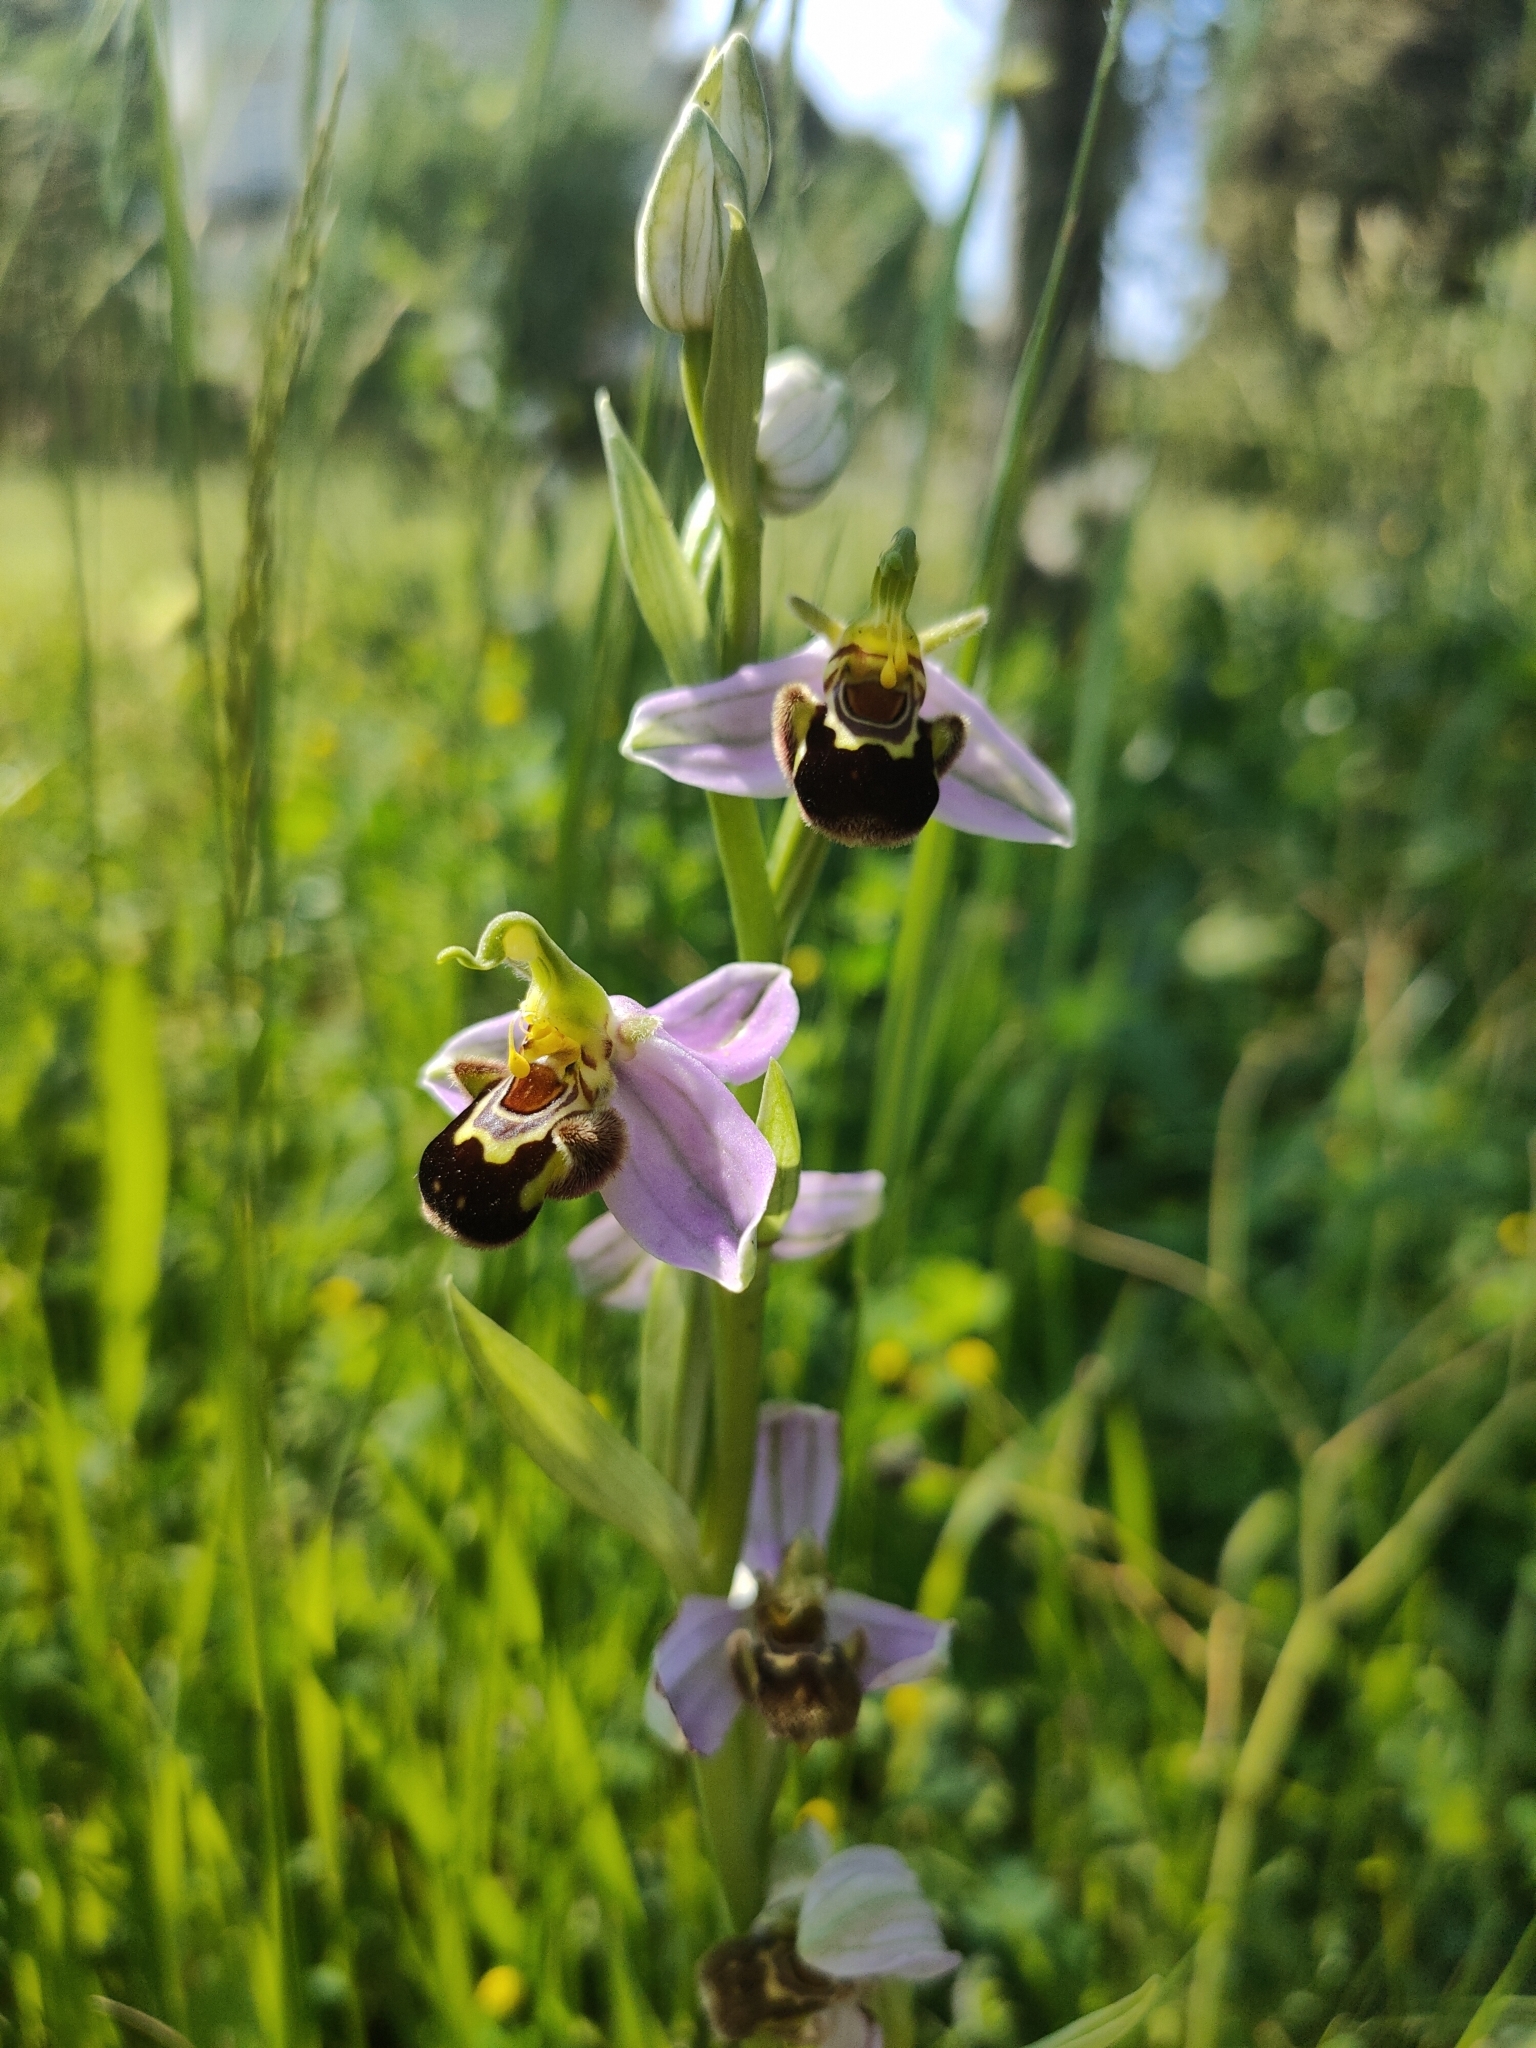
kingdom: Plantae
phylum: Tracheophyta
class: Liliopsida
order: Asparagales
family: Orchidaceae
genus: Ophrys
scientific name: Ophrys apifera
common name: Bee orchid
